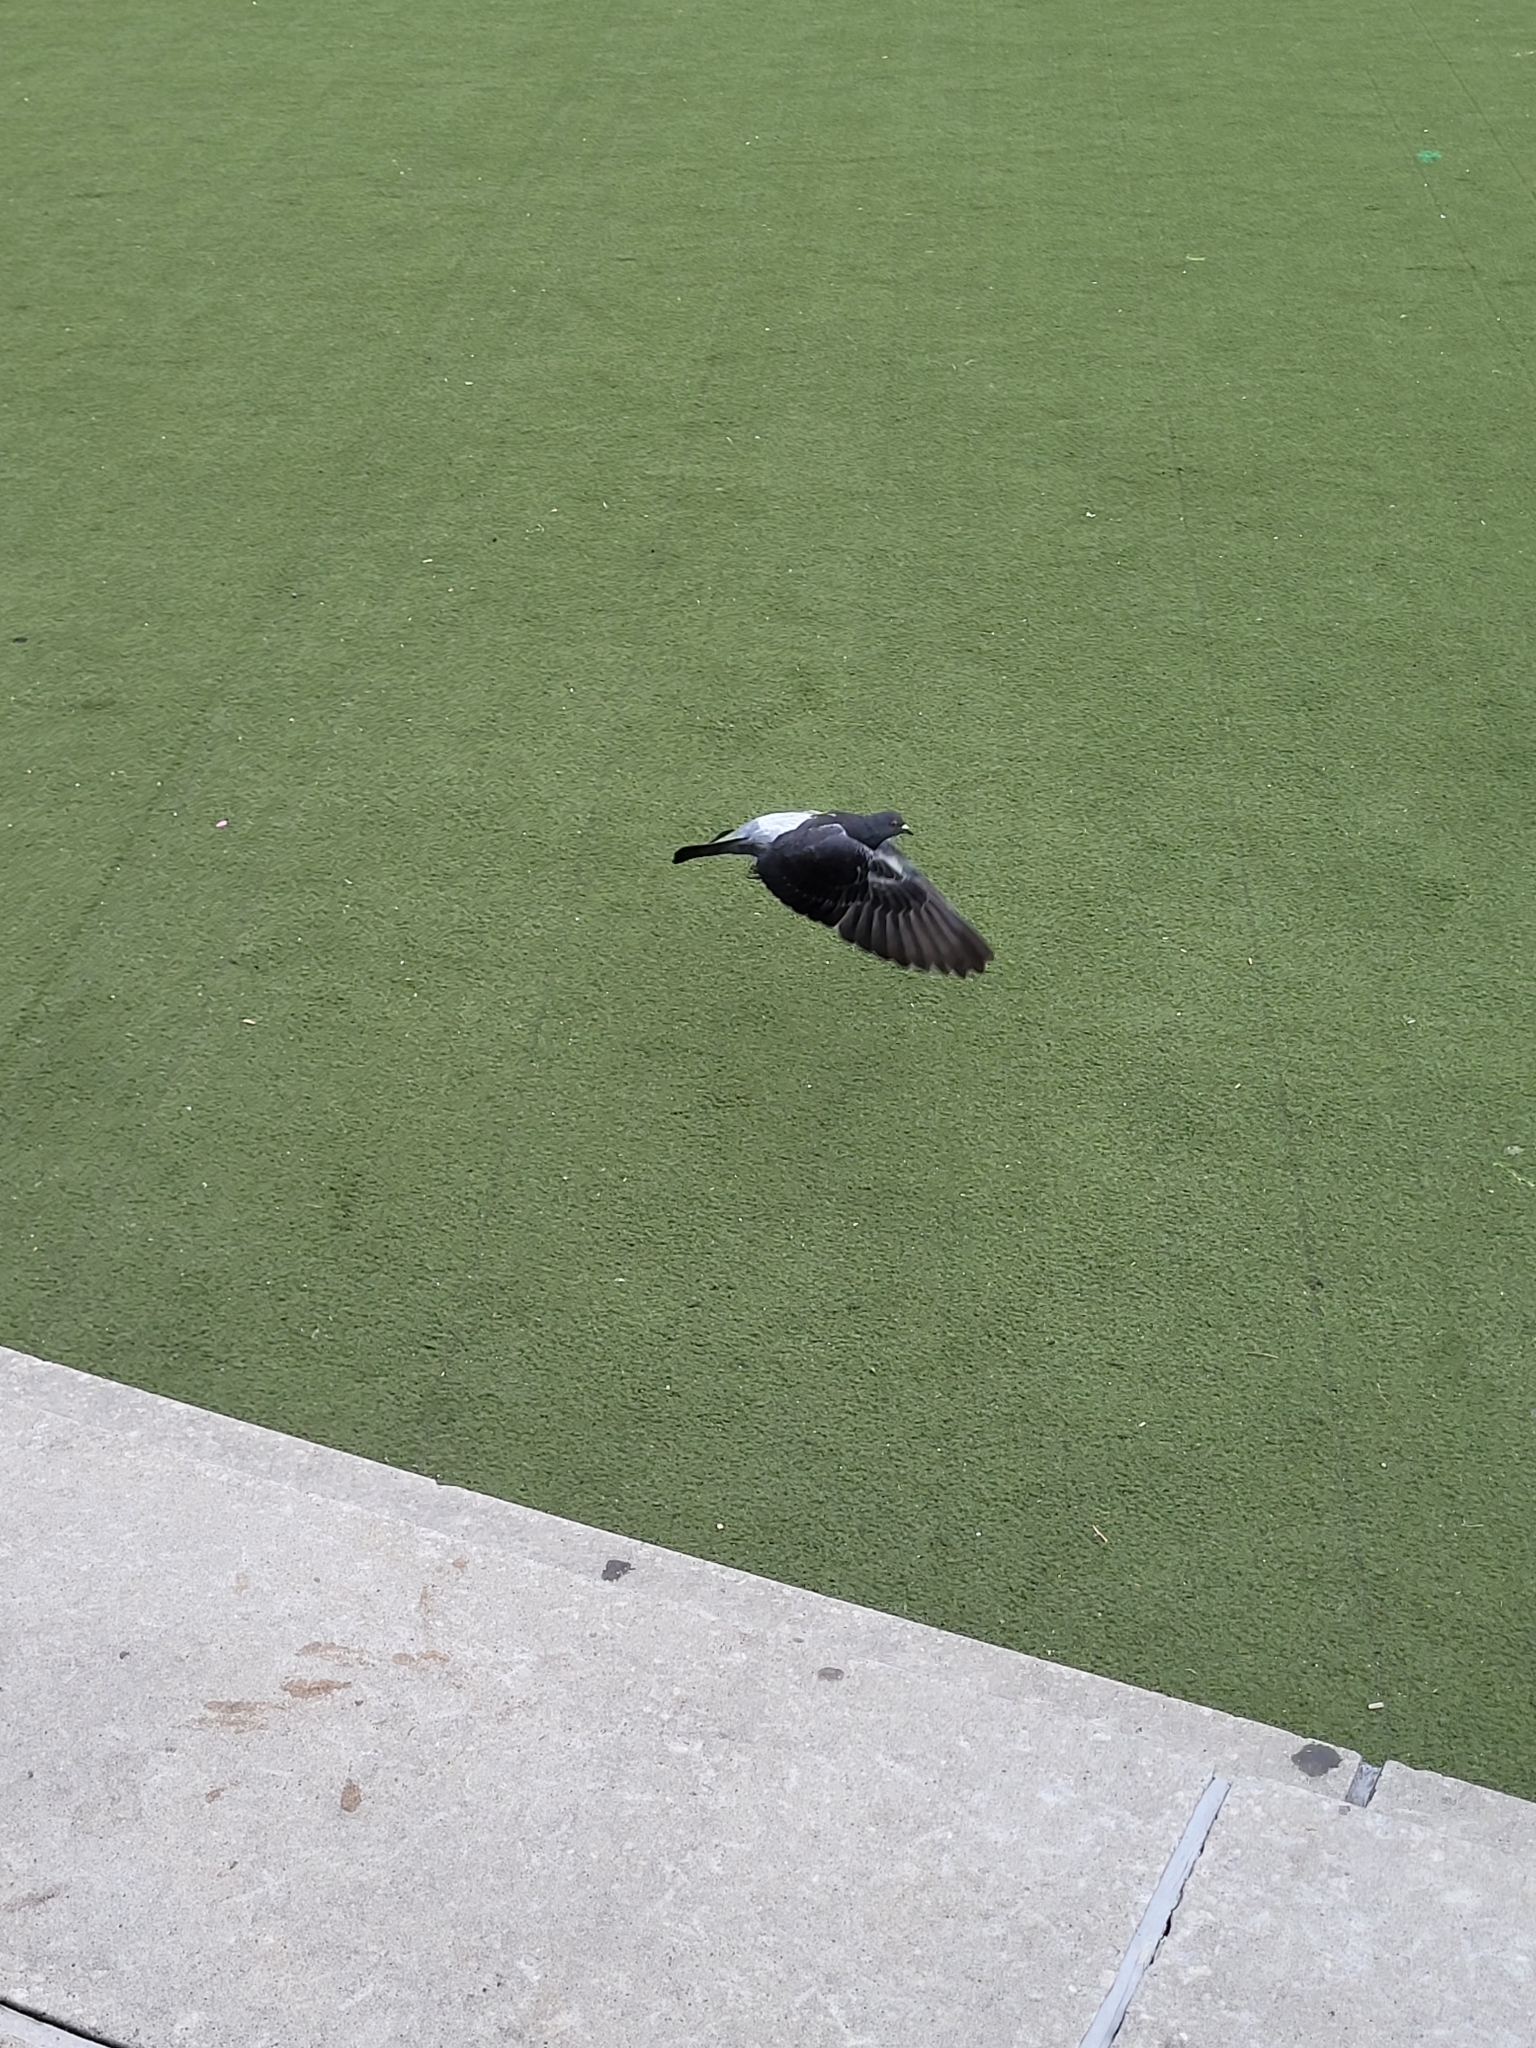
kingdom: Animalia
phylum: Chordata
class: Aves
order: Columbiformes
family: Columbidae
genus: Columba
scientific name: Columba livia
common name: Rock pigeon
